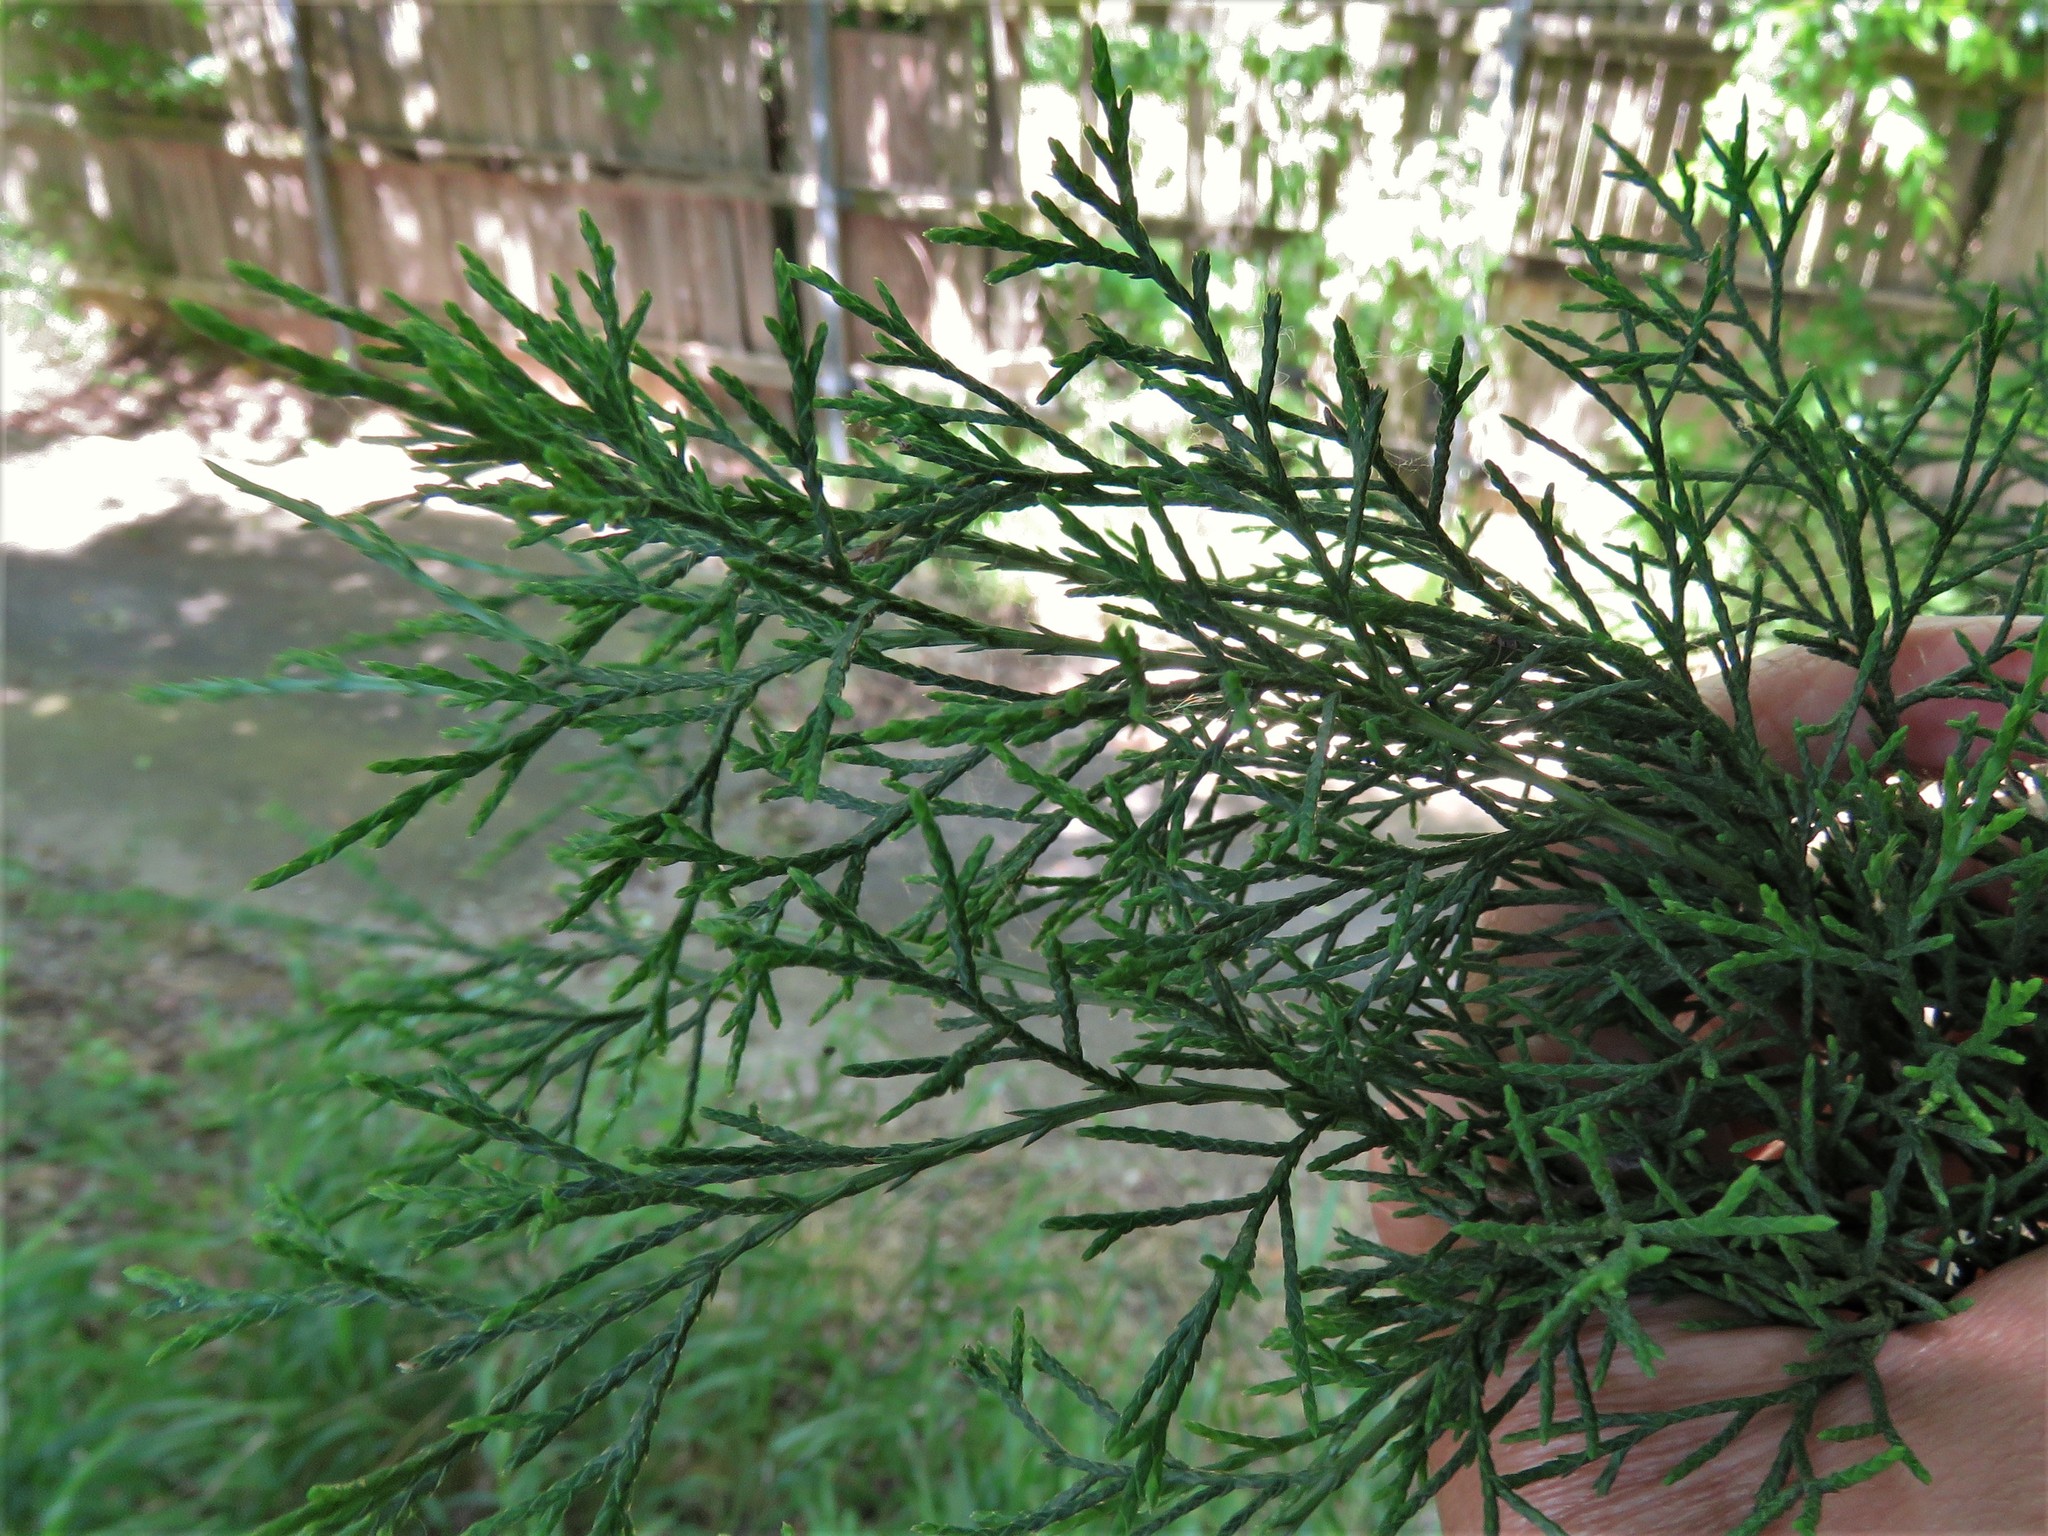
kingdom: Plantae
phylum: Tracheophyta
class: Pinopsida
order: Pinales
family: Cupressaceae
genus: Juniperus
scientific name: Juniperus virginiana
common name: Red juniper
